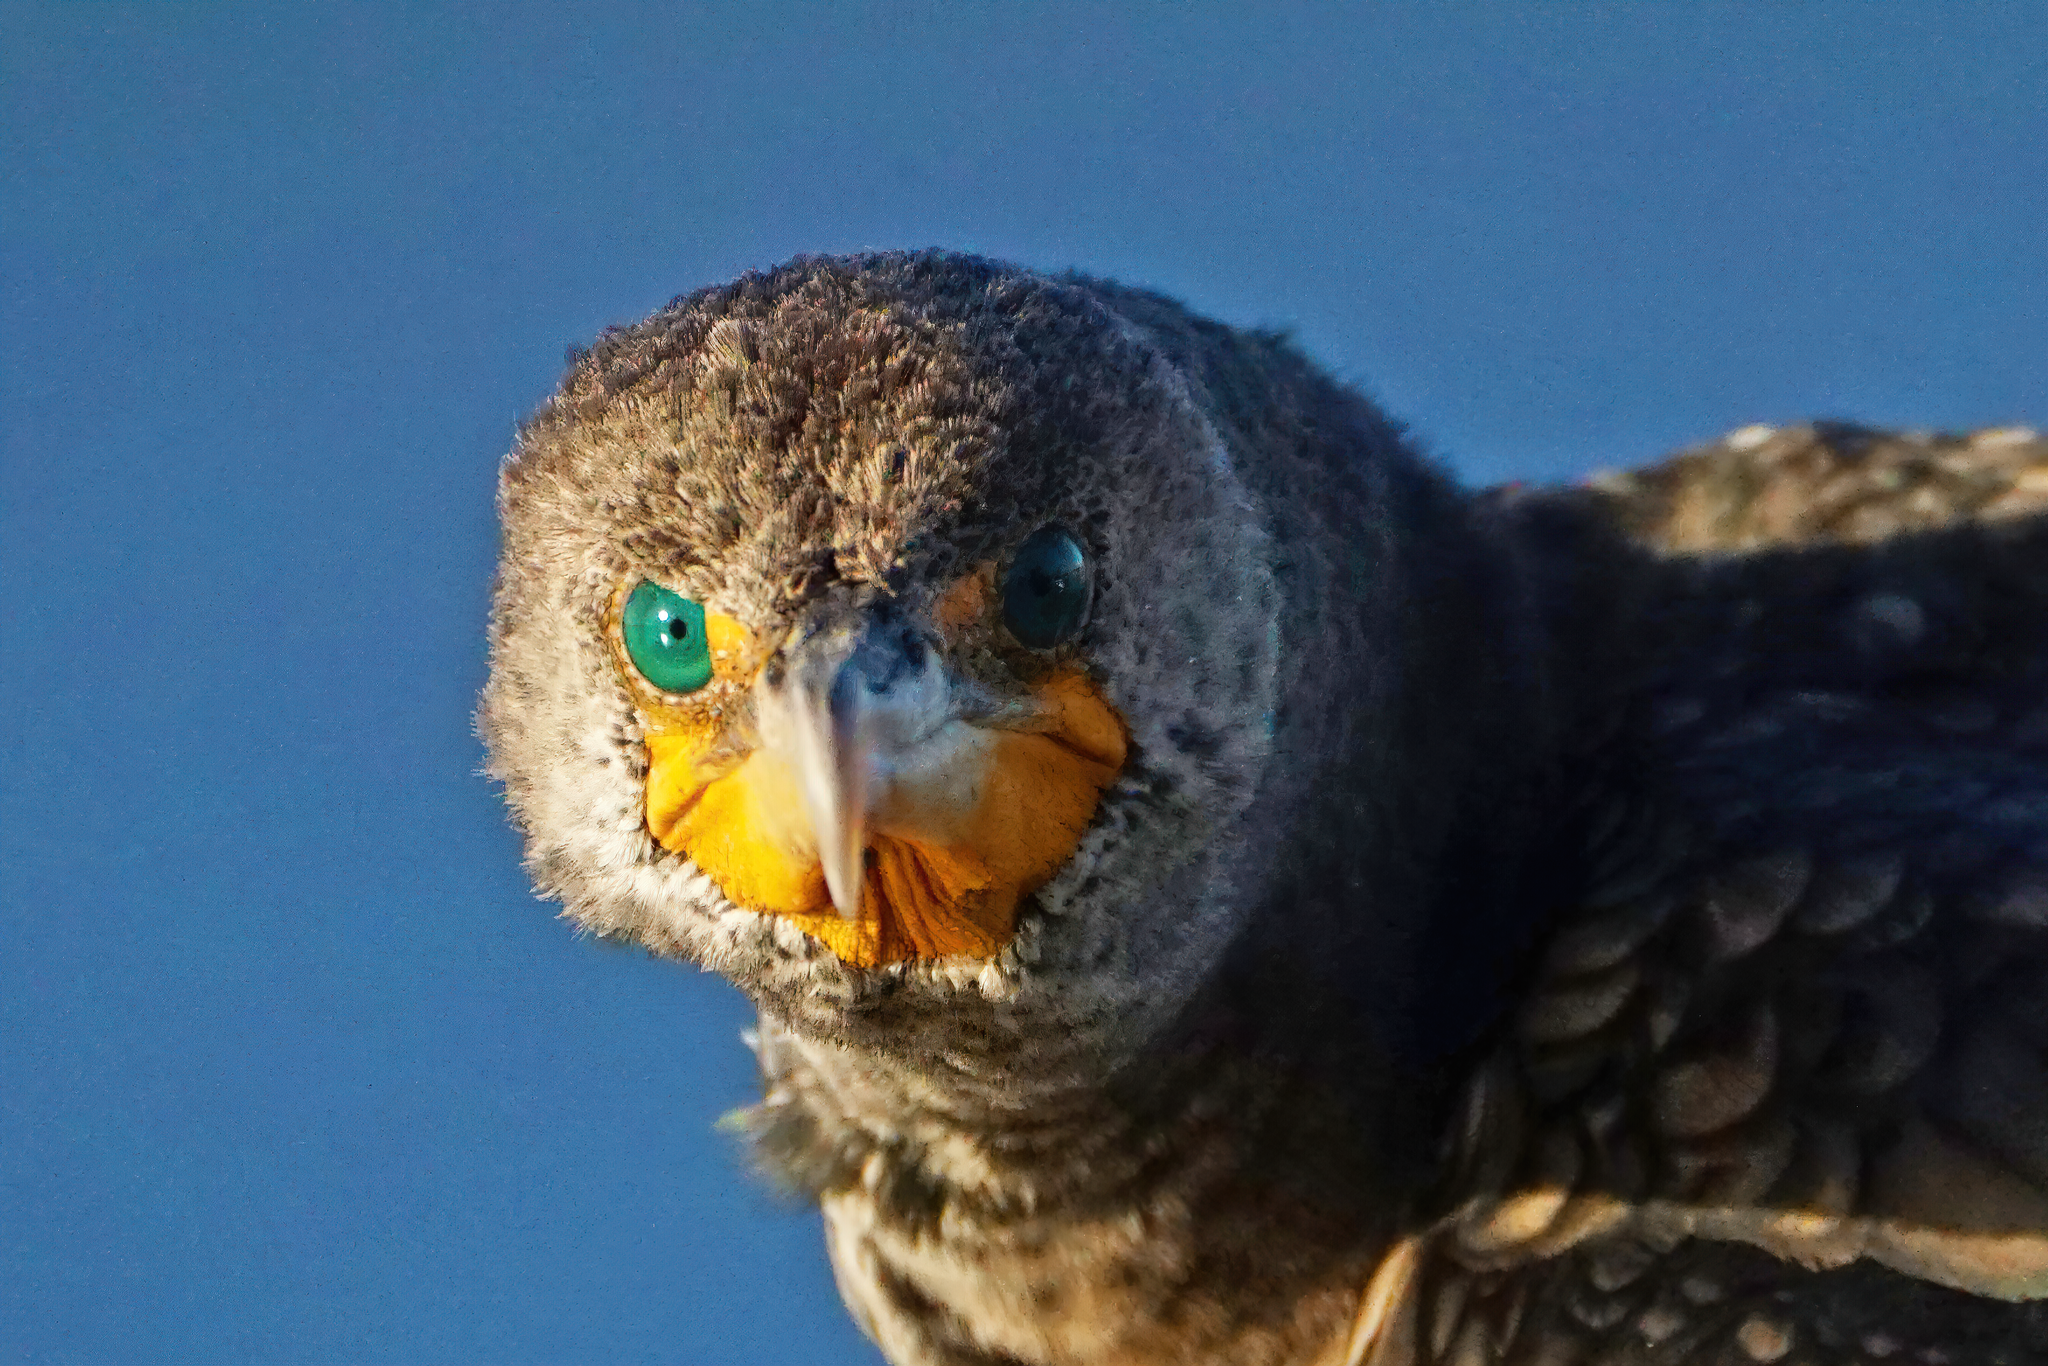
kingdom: Animalia
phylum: Chordata
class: Aves
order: Suliformes
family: Phalacrocoracidae
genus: Phalacrocorax
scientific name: Phalacrocorax auritus
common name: Double-crested cormorant
